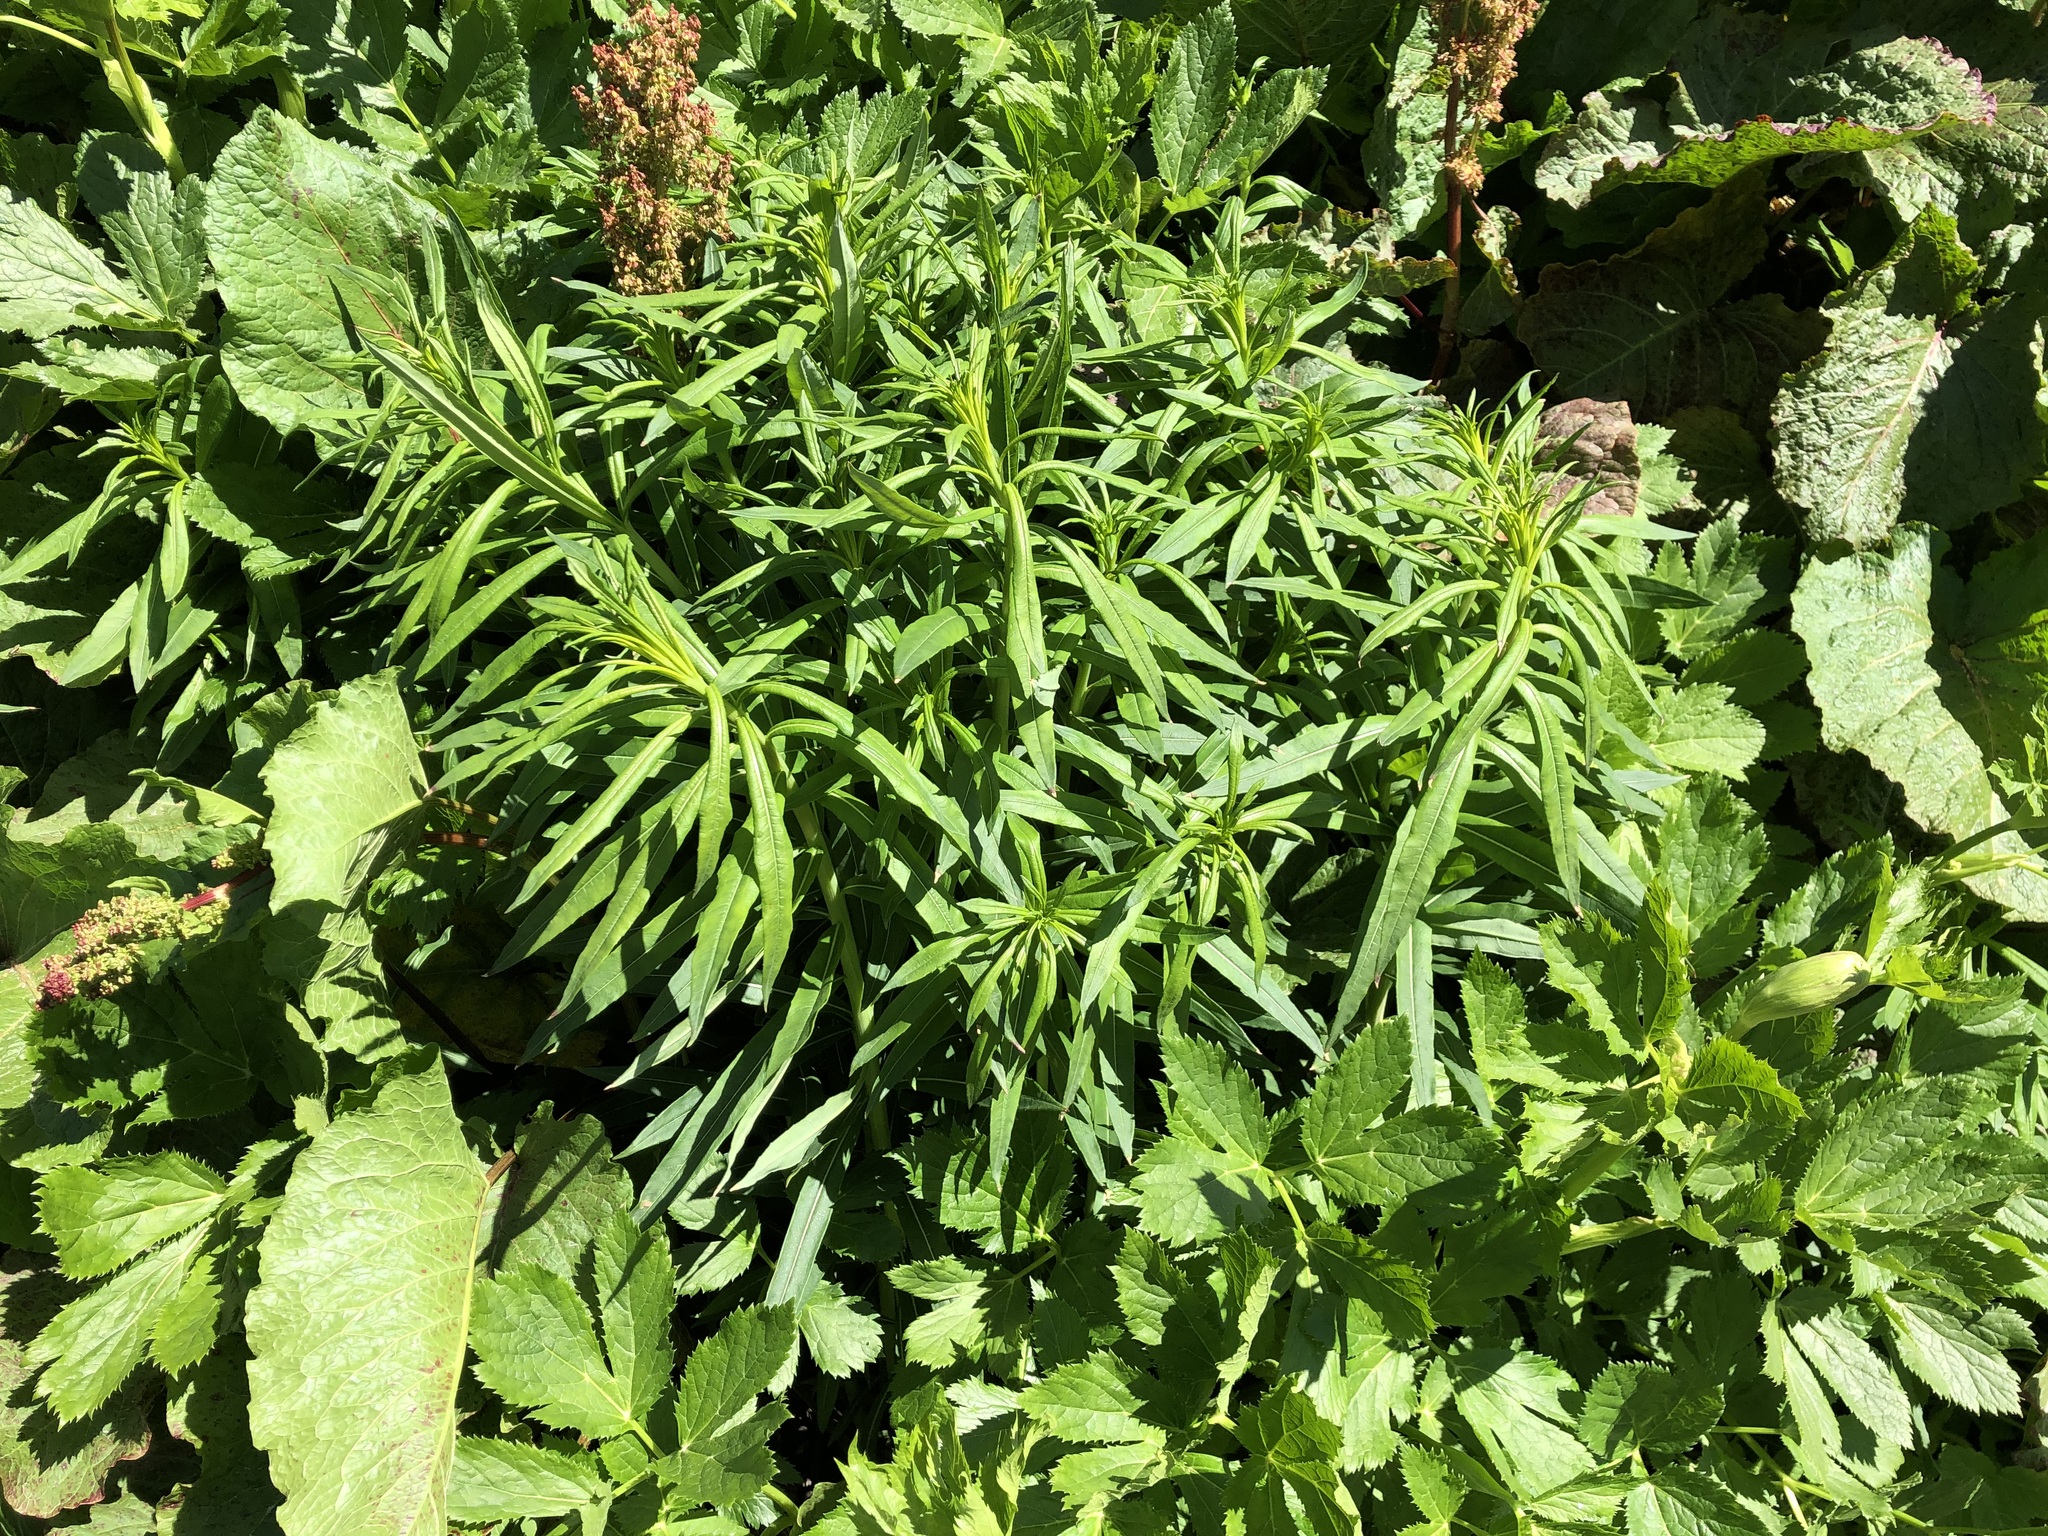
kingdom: Plantae
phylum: Tracheophyta
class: Magnoliopsida
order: Myrtales
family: Onagraceae
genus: Chamaenerion
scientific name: Chamaenerion angustifolium
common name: Fireweed
